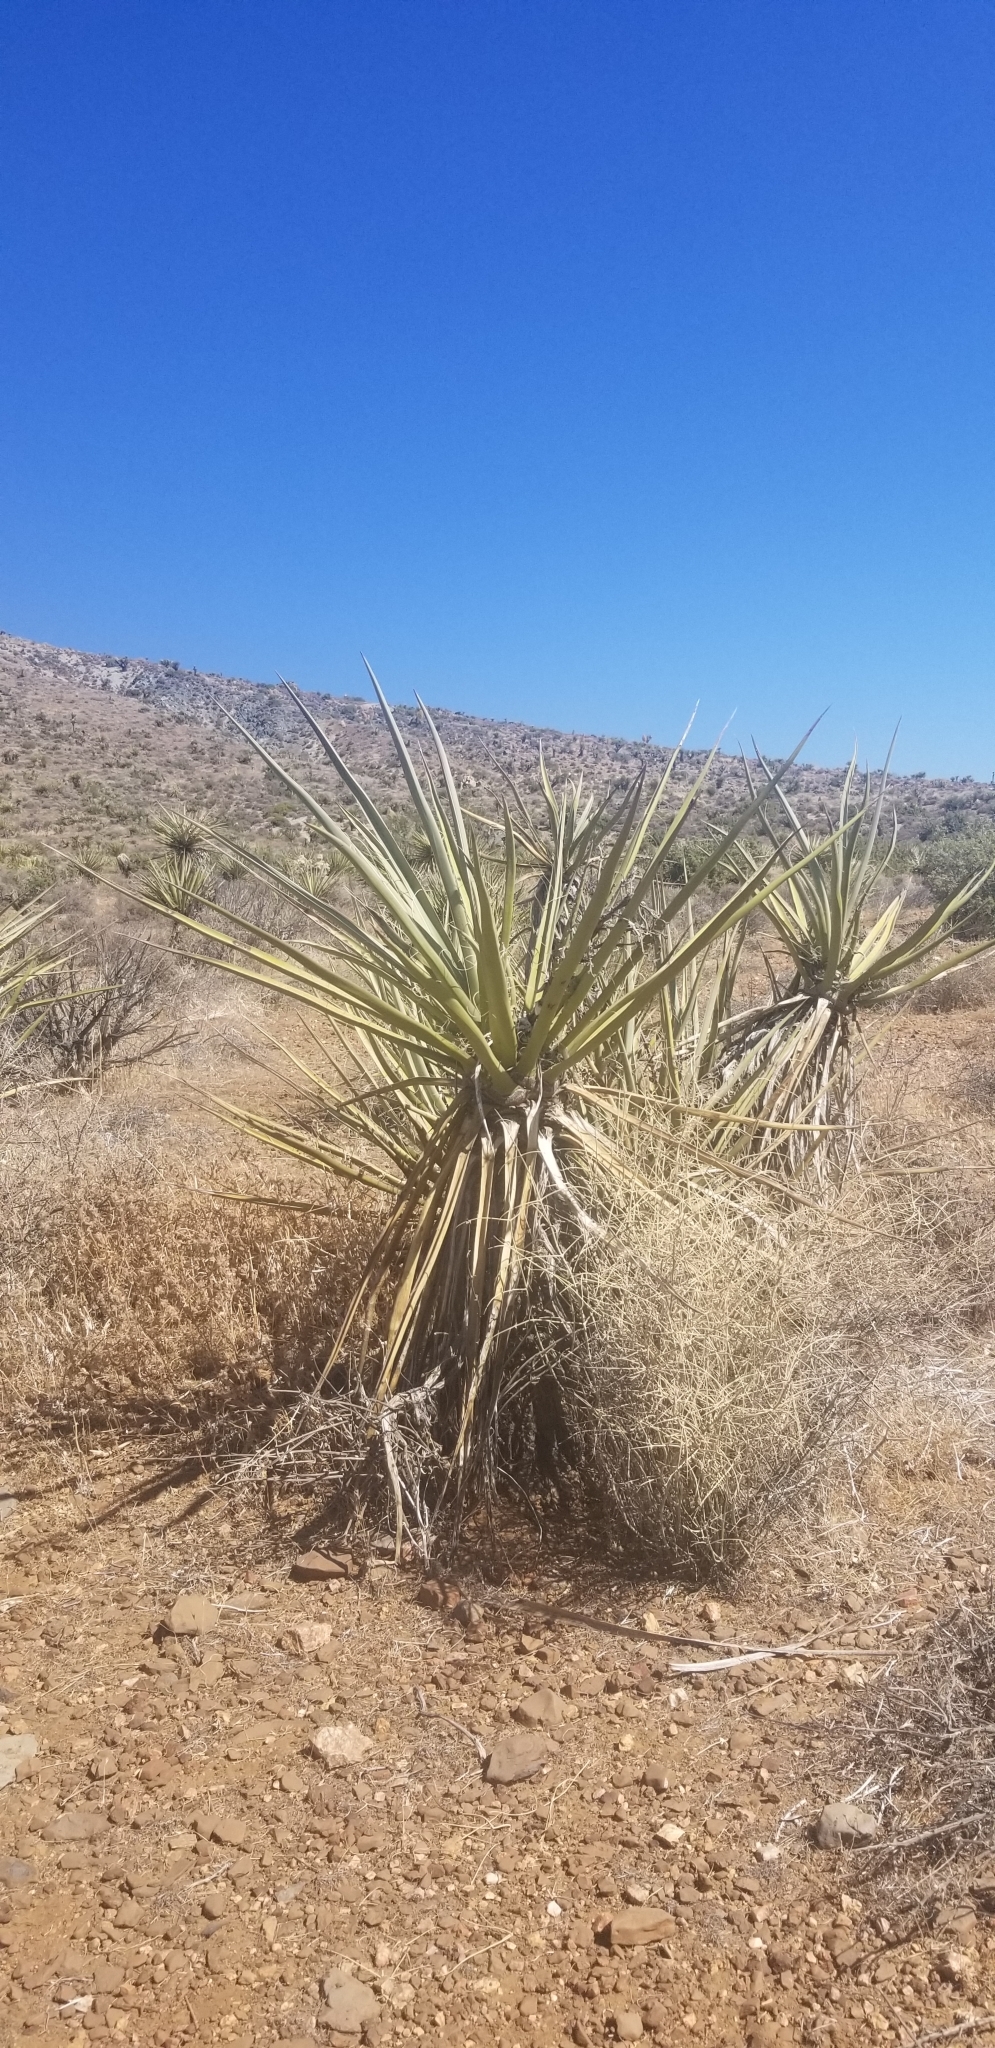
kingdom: Plantae
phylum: Tracheophyta
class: Liliopsida
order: Asparagales
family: Asparagaceae
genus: Yucca
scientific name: Yucca schidigera
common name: Mojave yucca
